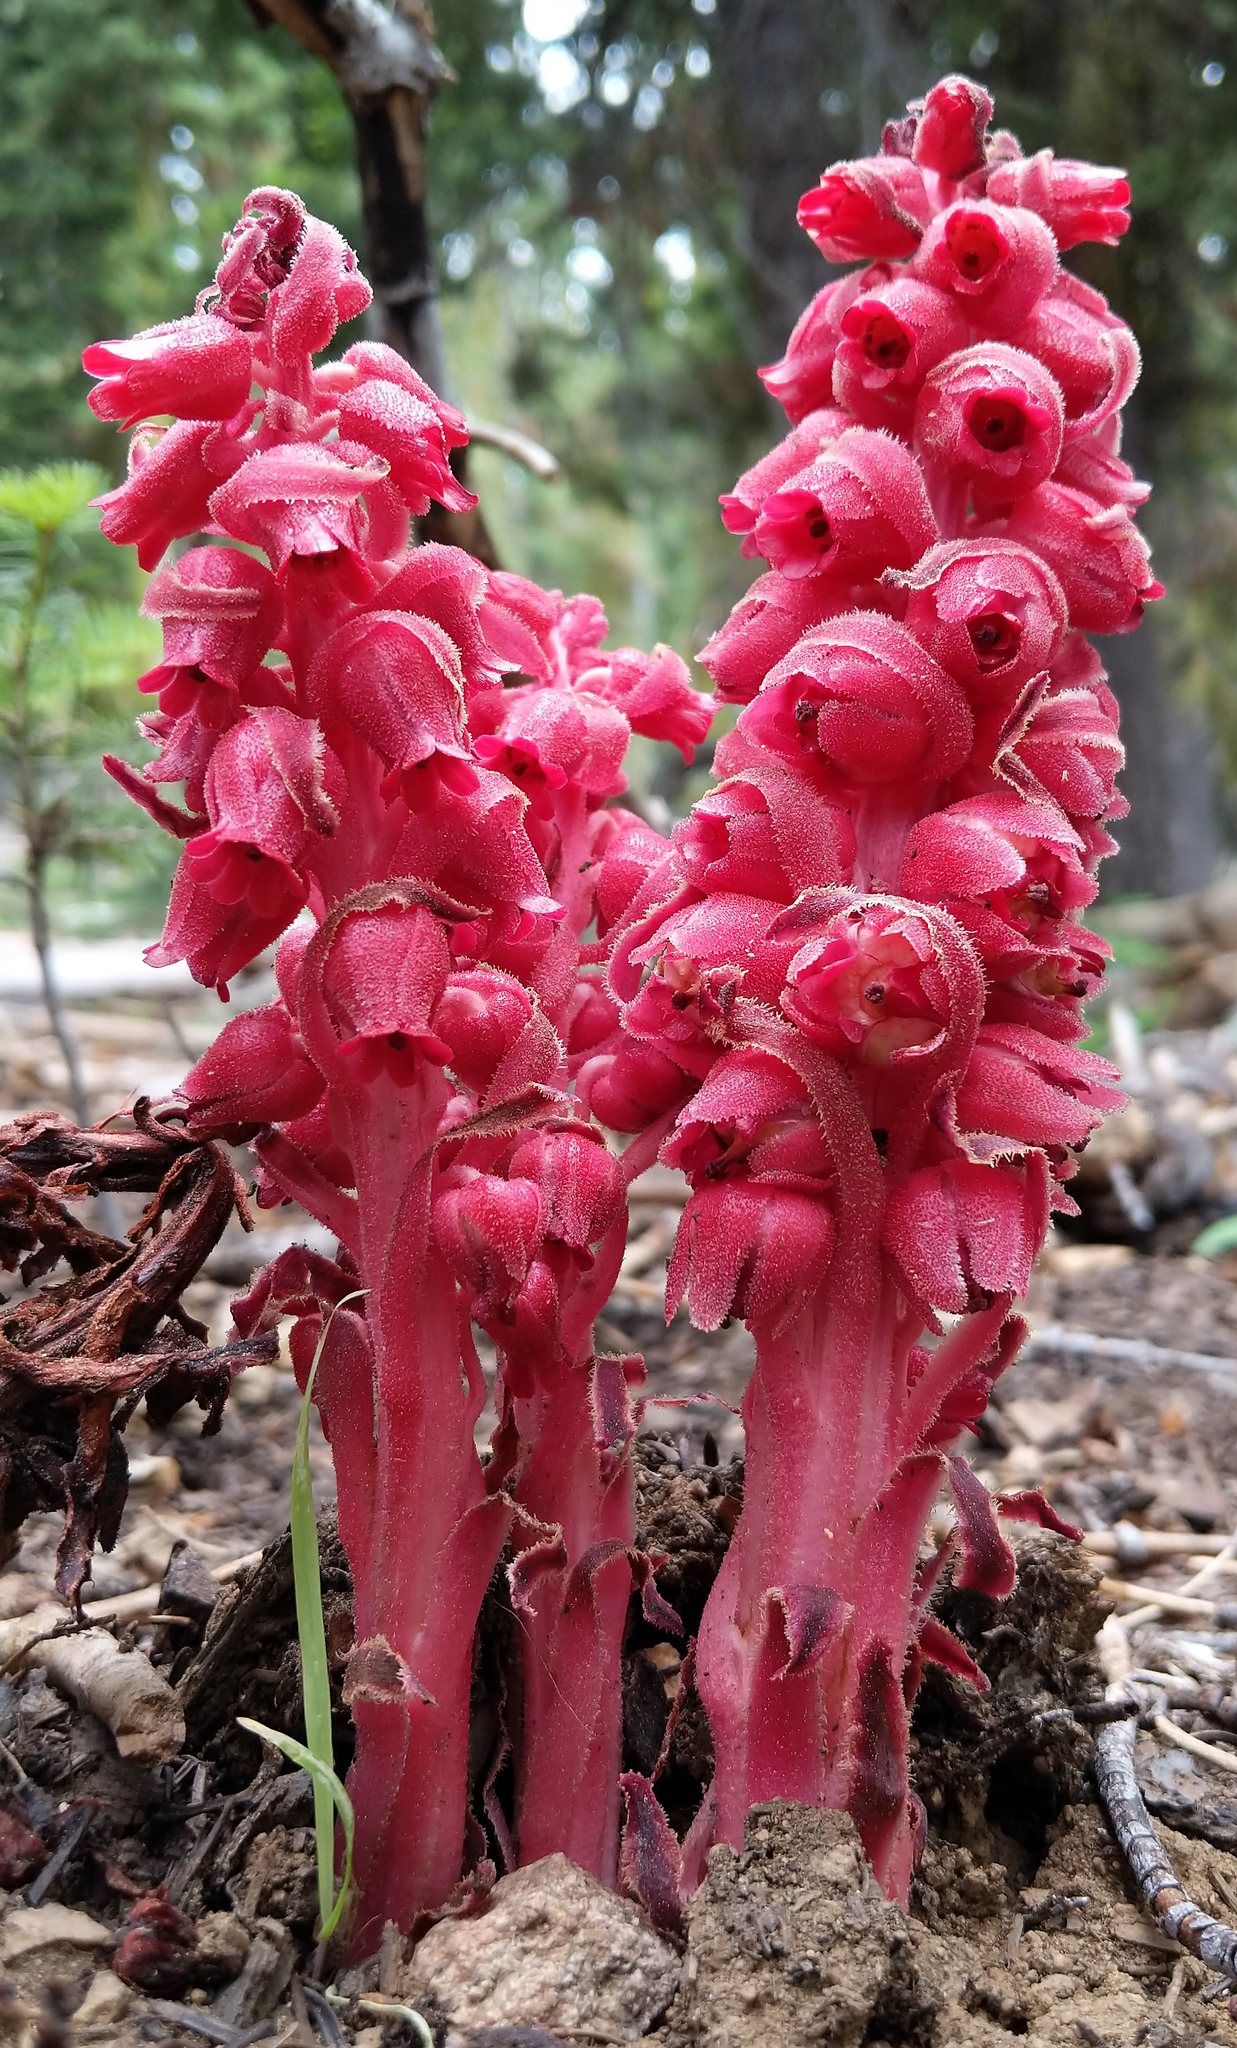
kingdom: Plantae
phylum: Tracheophyta
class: Magnoliopsida
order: Ericales
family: Ericaceae
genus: Sarcodes
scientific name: Sarcodes sanguinea
